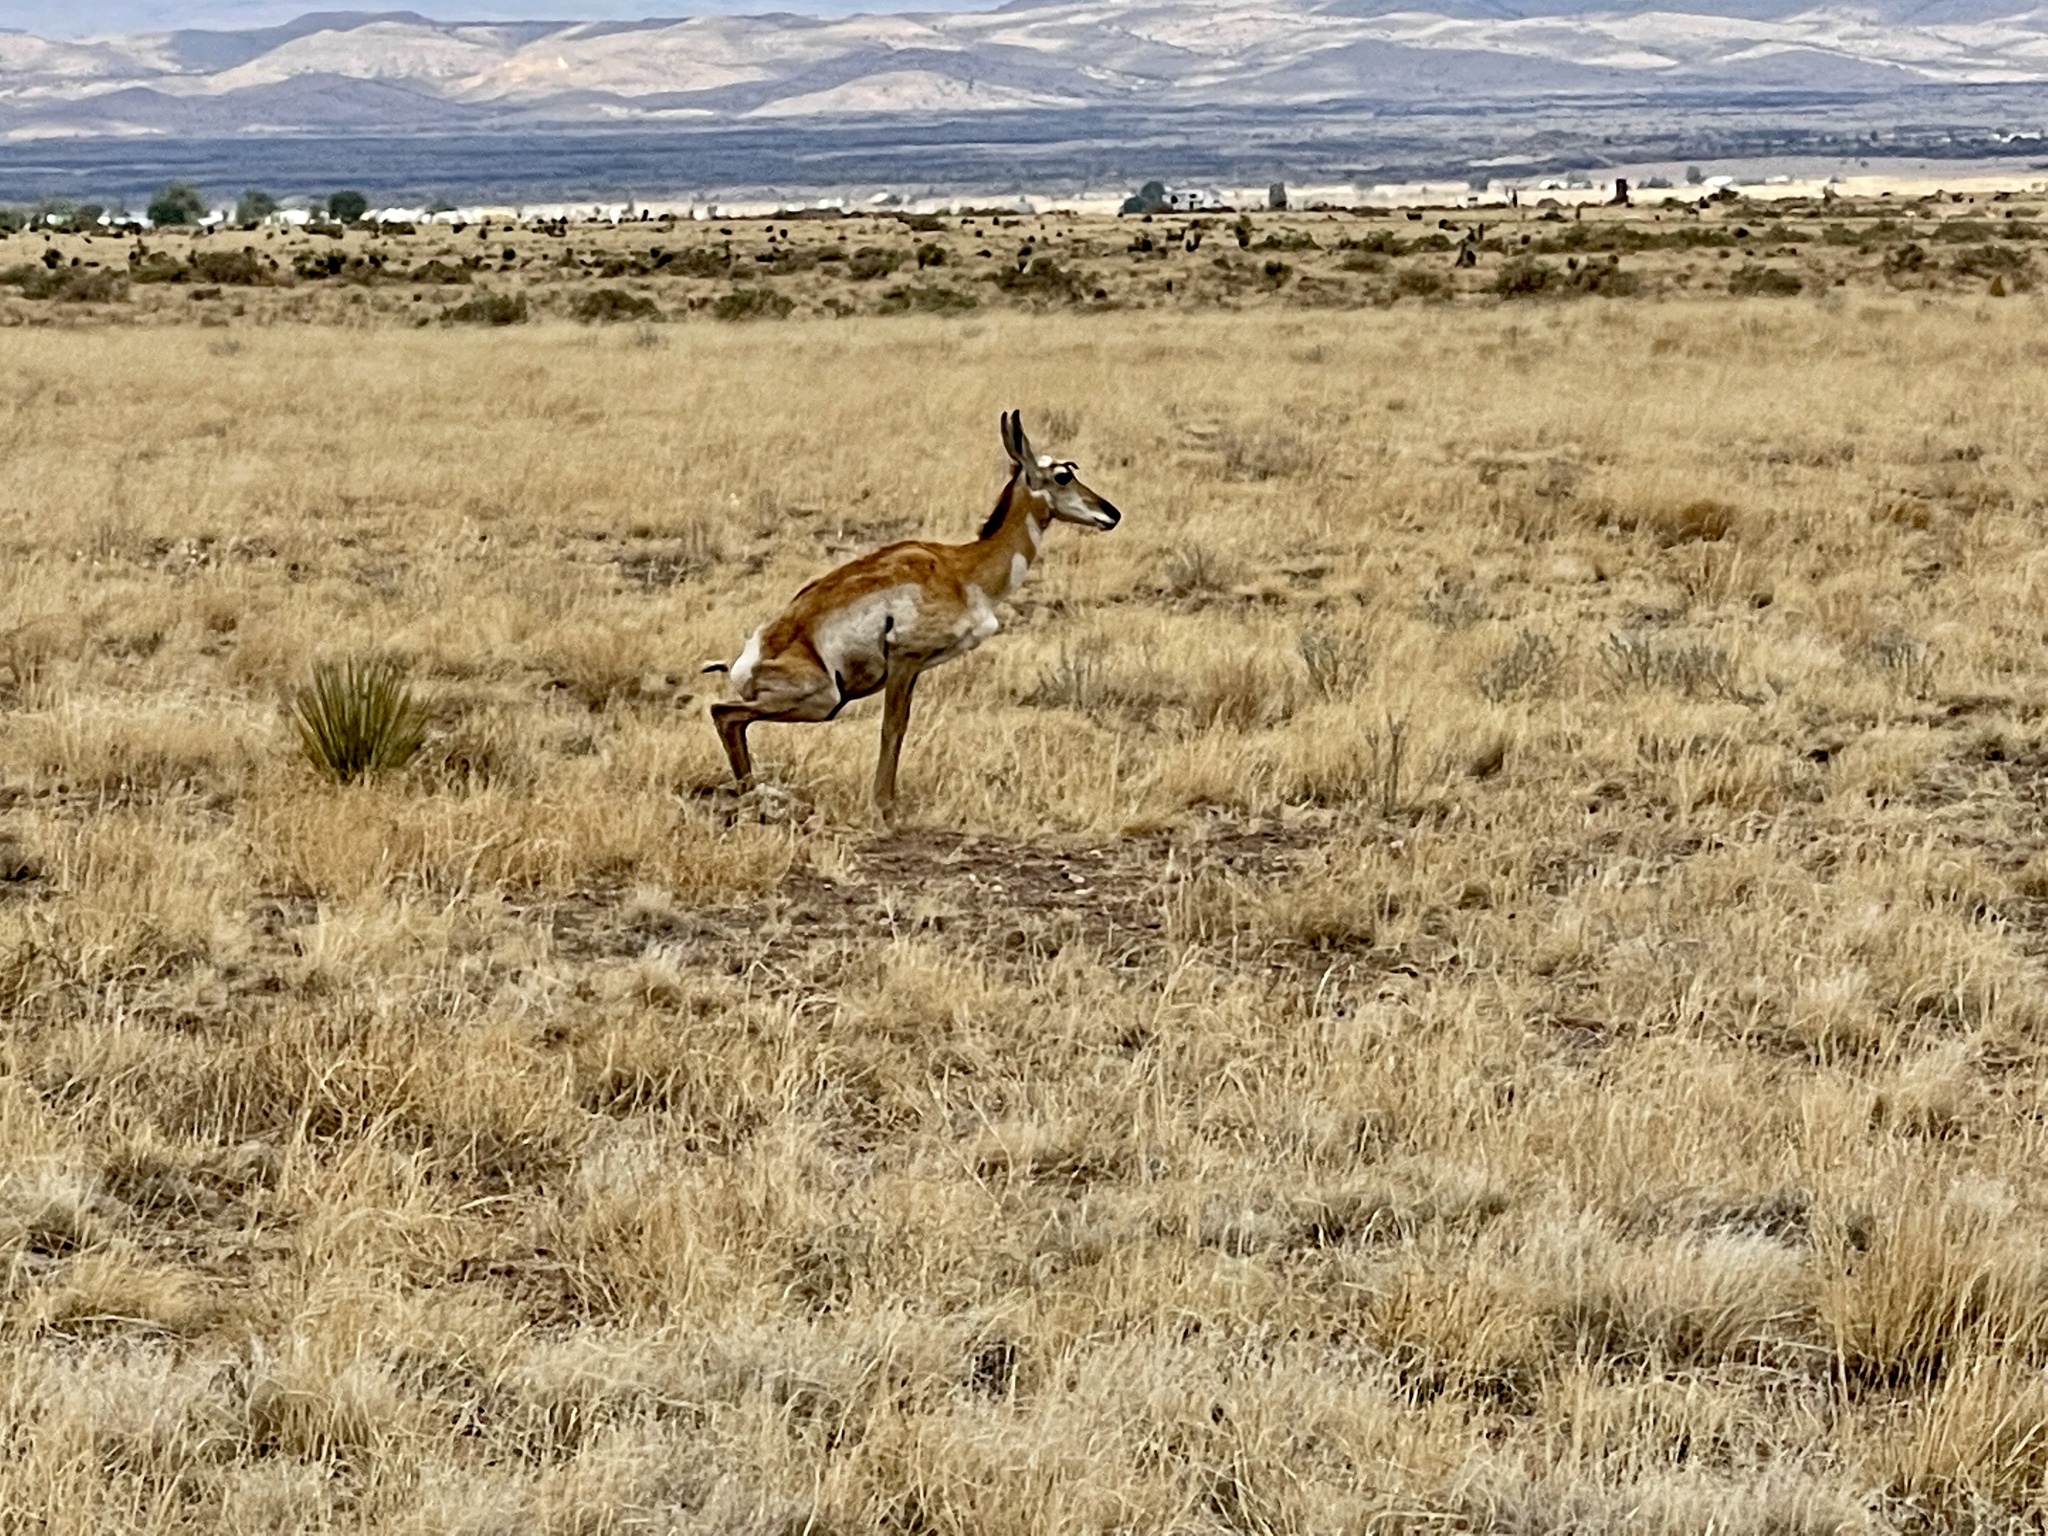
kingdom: Animalia
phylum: Chordata
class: Mammalia
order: Artiodactyla
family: Antilocapridae
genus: Antilocapra
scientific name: Antilocapra americana
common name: Pronghorn
